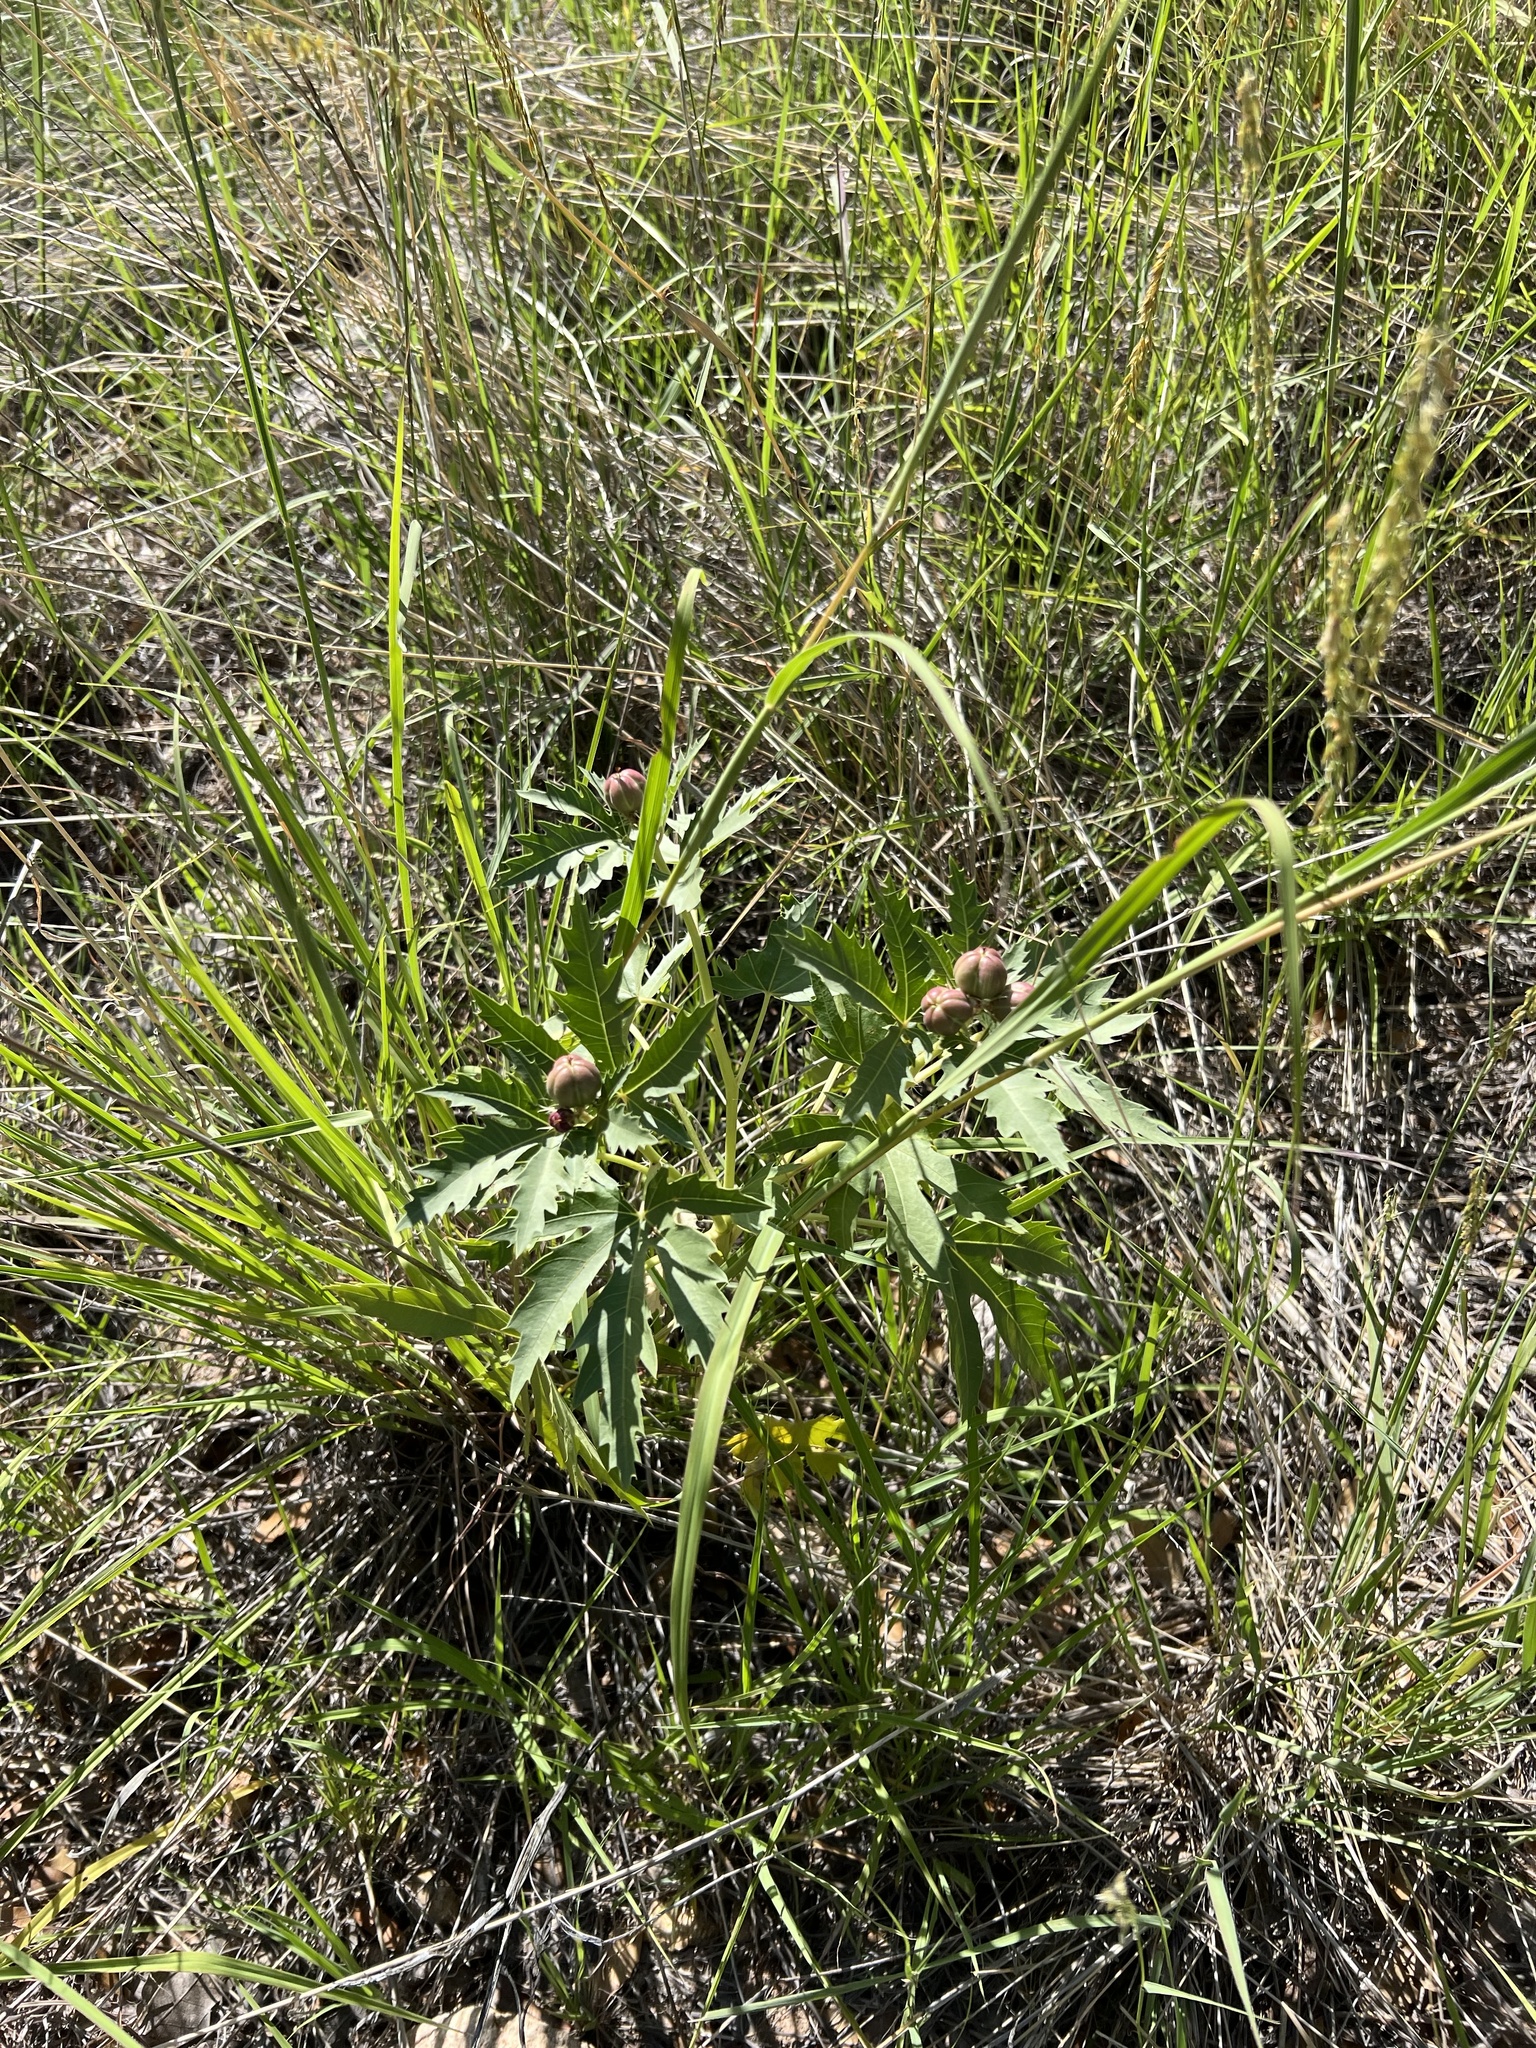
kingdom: Plantae
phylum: Tracheophyta
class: Magnoliopsida
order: Malpighiales
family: Euphorbiaceae
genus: Jatropha
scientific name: Jatropha macrorhiza
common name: Ragged nettlespurge
